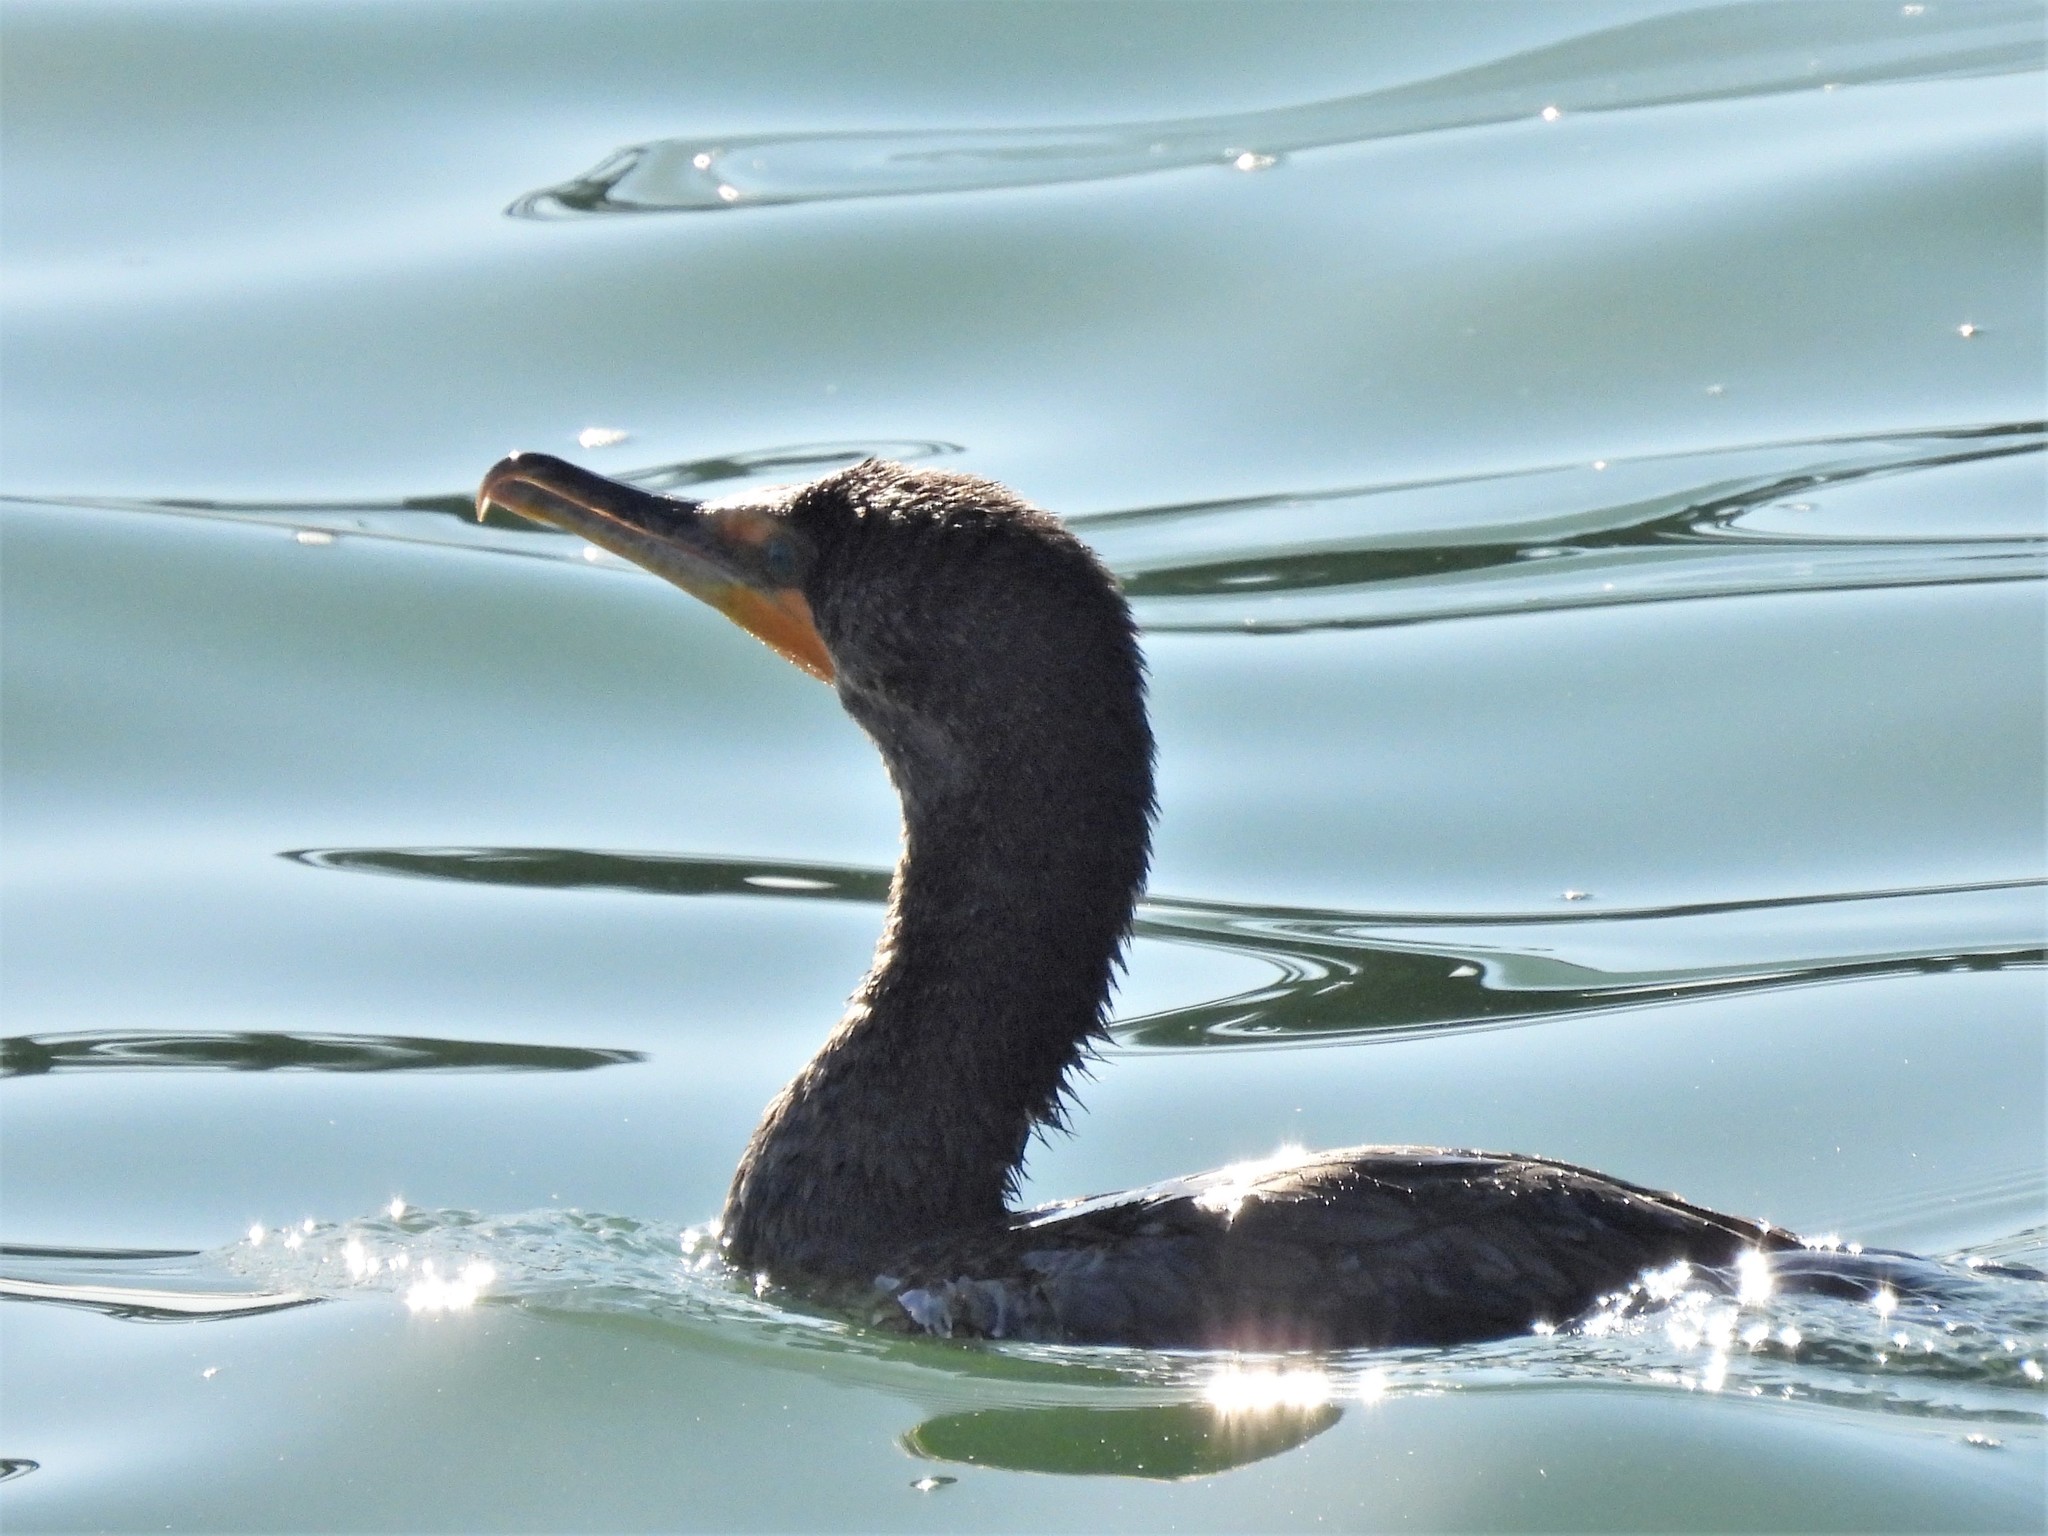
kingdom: Animalia
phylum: Chordata
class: Aves
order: Suliformes
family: Phalacrocoracidae
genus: Phalacrocorax
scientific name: Phalacrocorax auritus
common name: Double-crested cormorant
